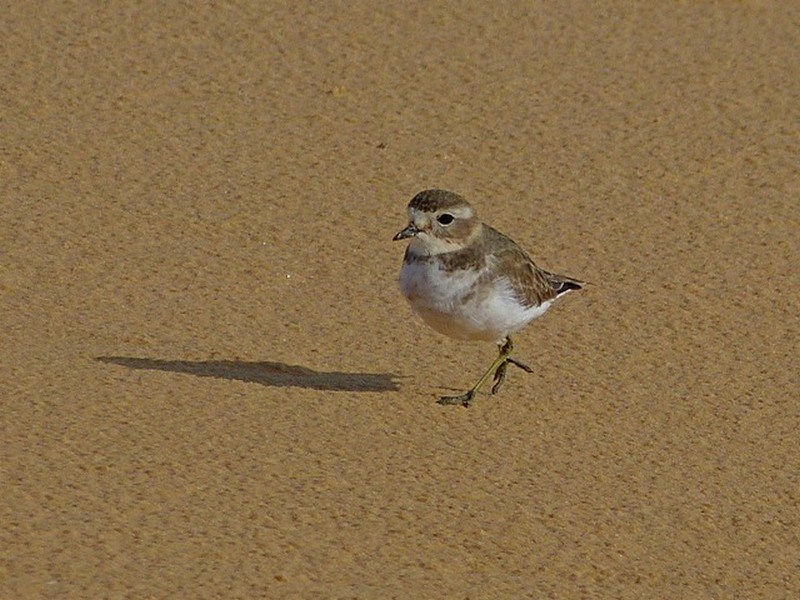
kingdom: Animalia
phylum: Chordata
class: Aves
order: Charadriiformes
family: Charadriidae
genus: Anarhynchus
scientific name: Anarhynchus
